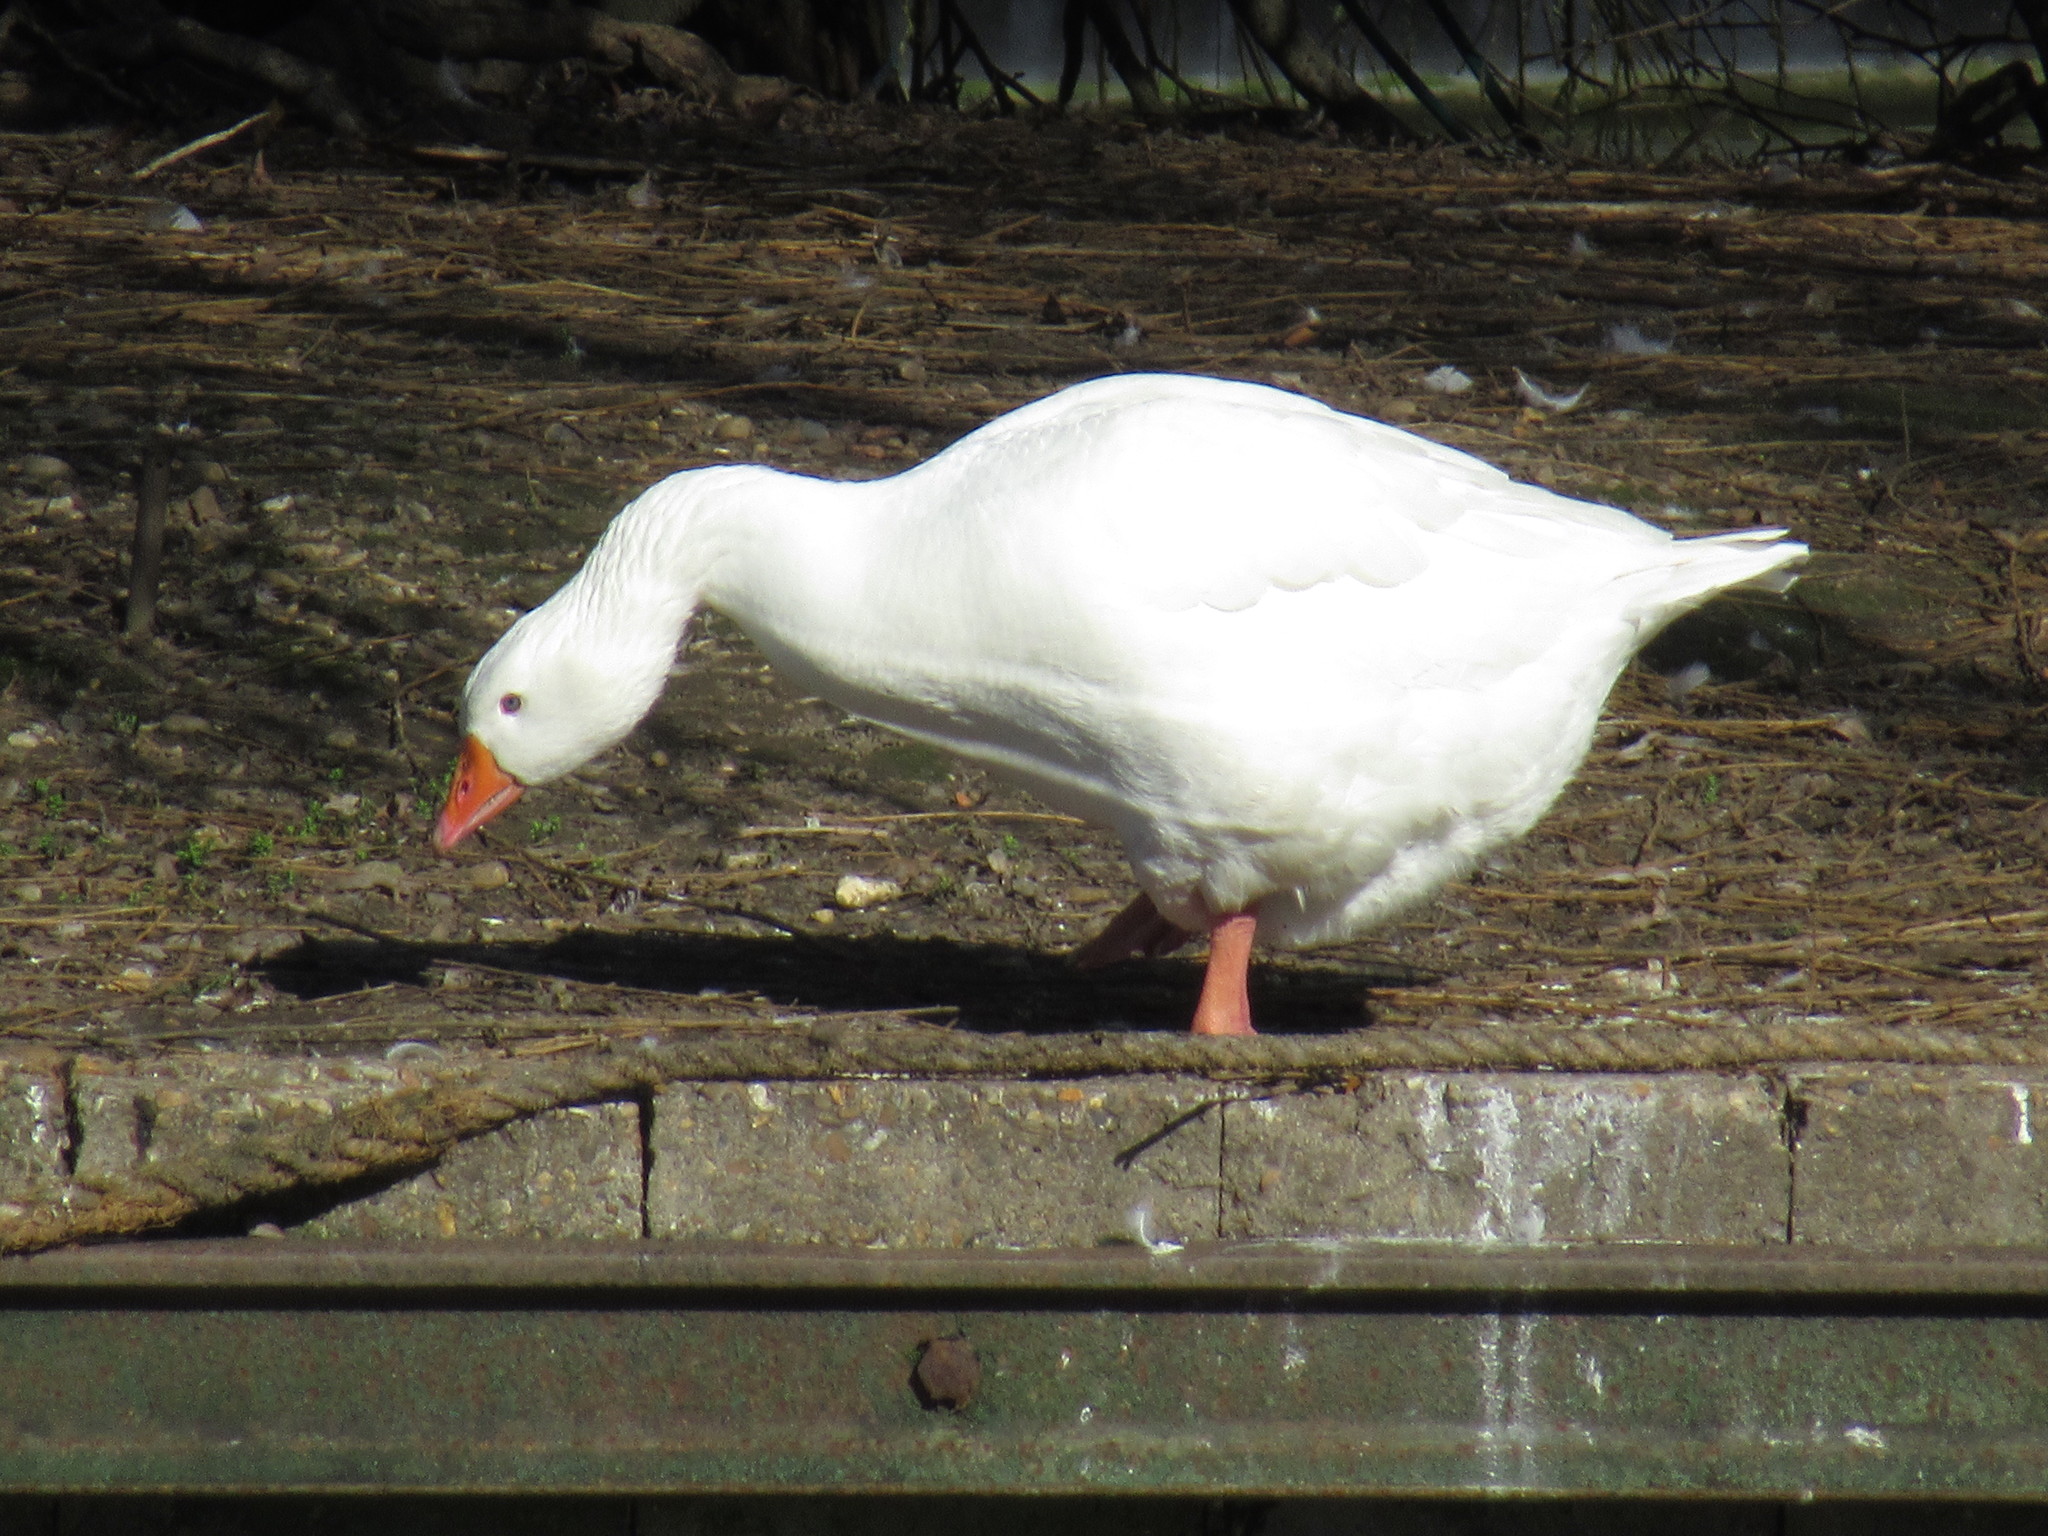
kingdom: Animalia
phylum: Chordata
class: Aves
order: Anseriformes
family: Anatidae
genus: Anser
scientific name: Anser anser
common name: Greylag goose
